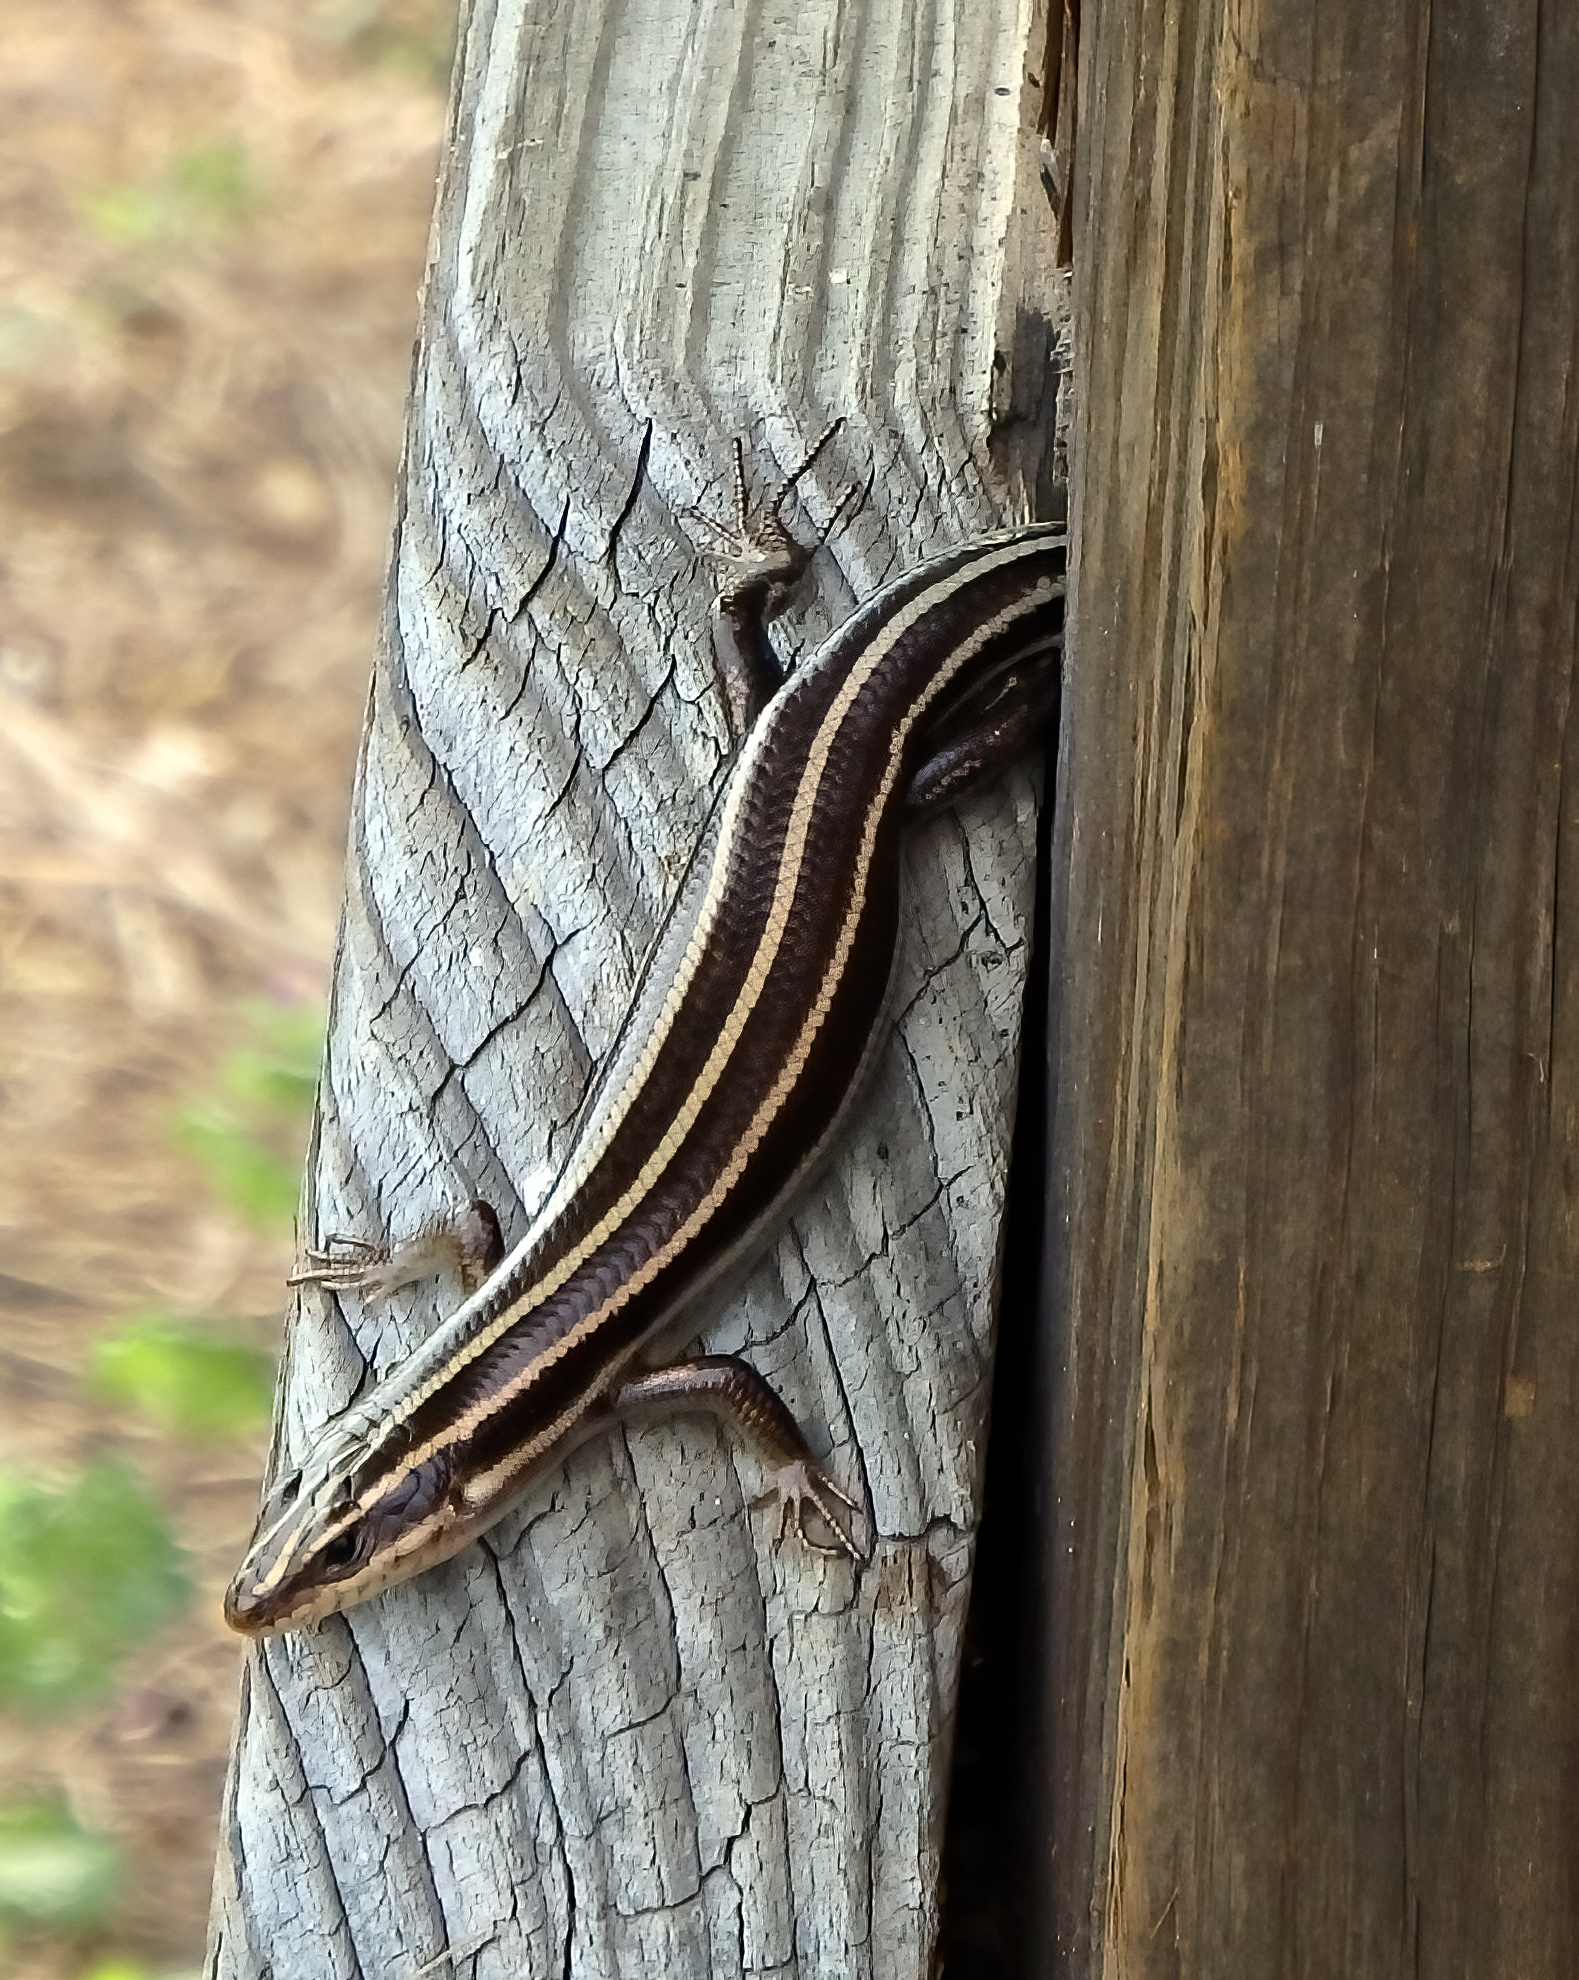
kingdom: Animalia
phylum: Chordata
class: Squamata
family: Scincidae
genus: Plestiodon
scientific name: Plestiodon fasciatus
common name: Five-lined skink
